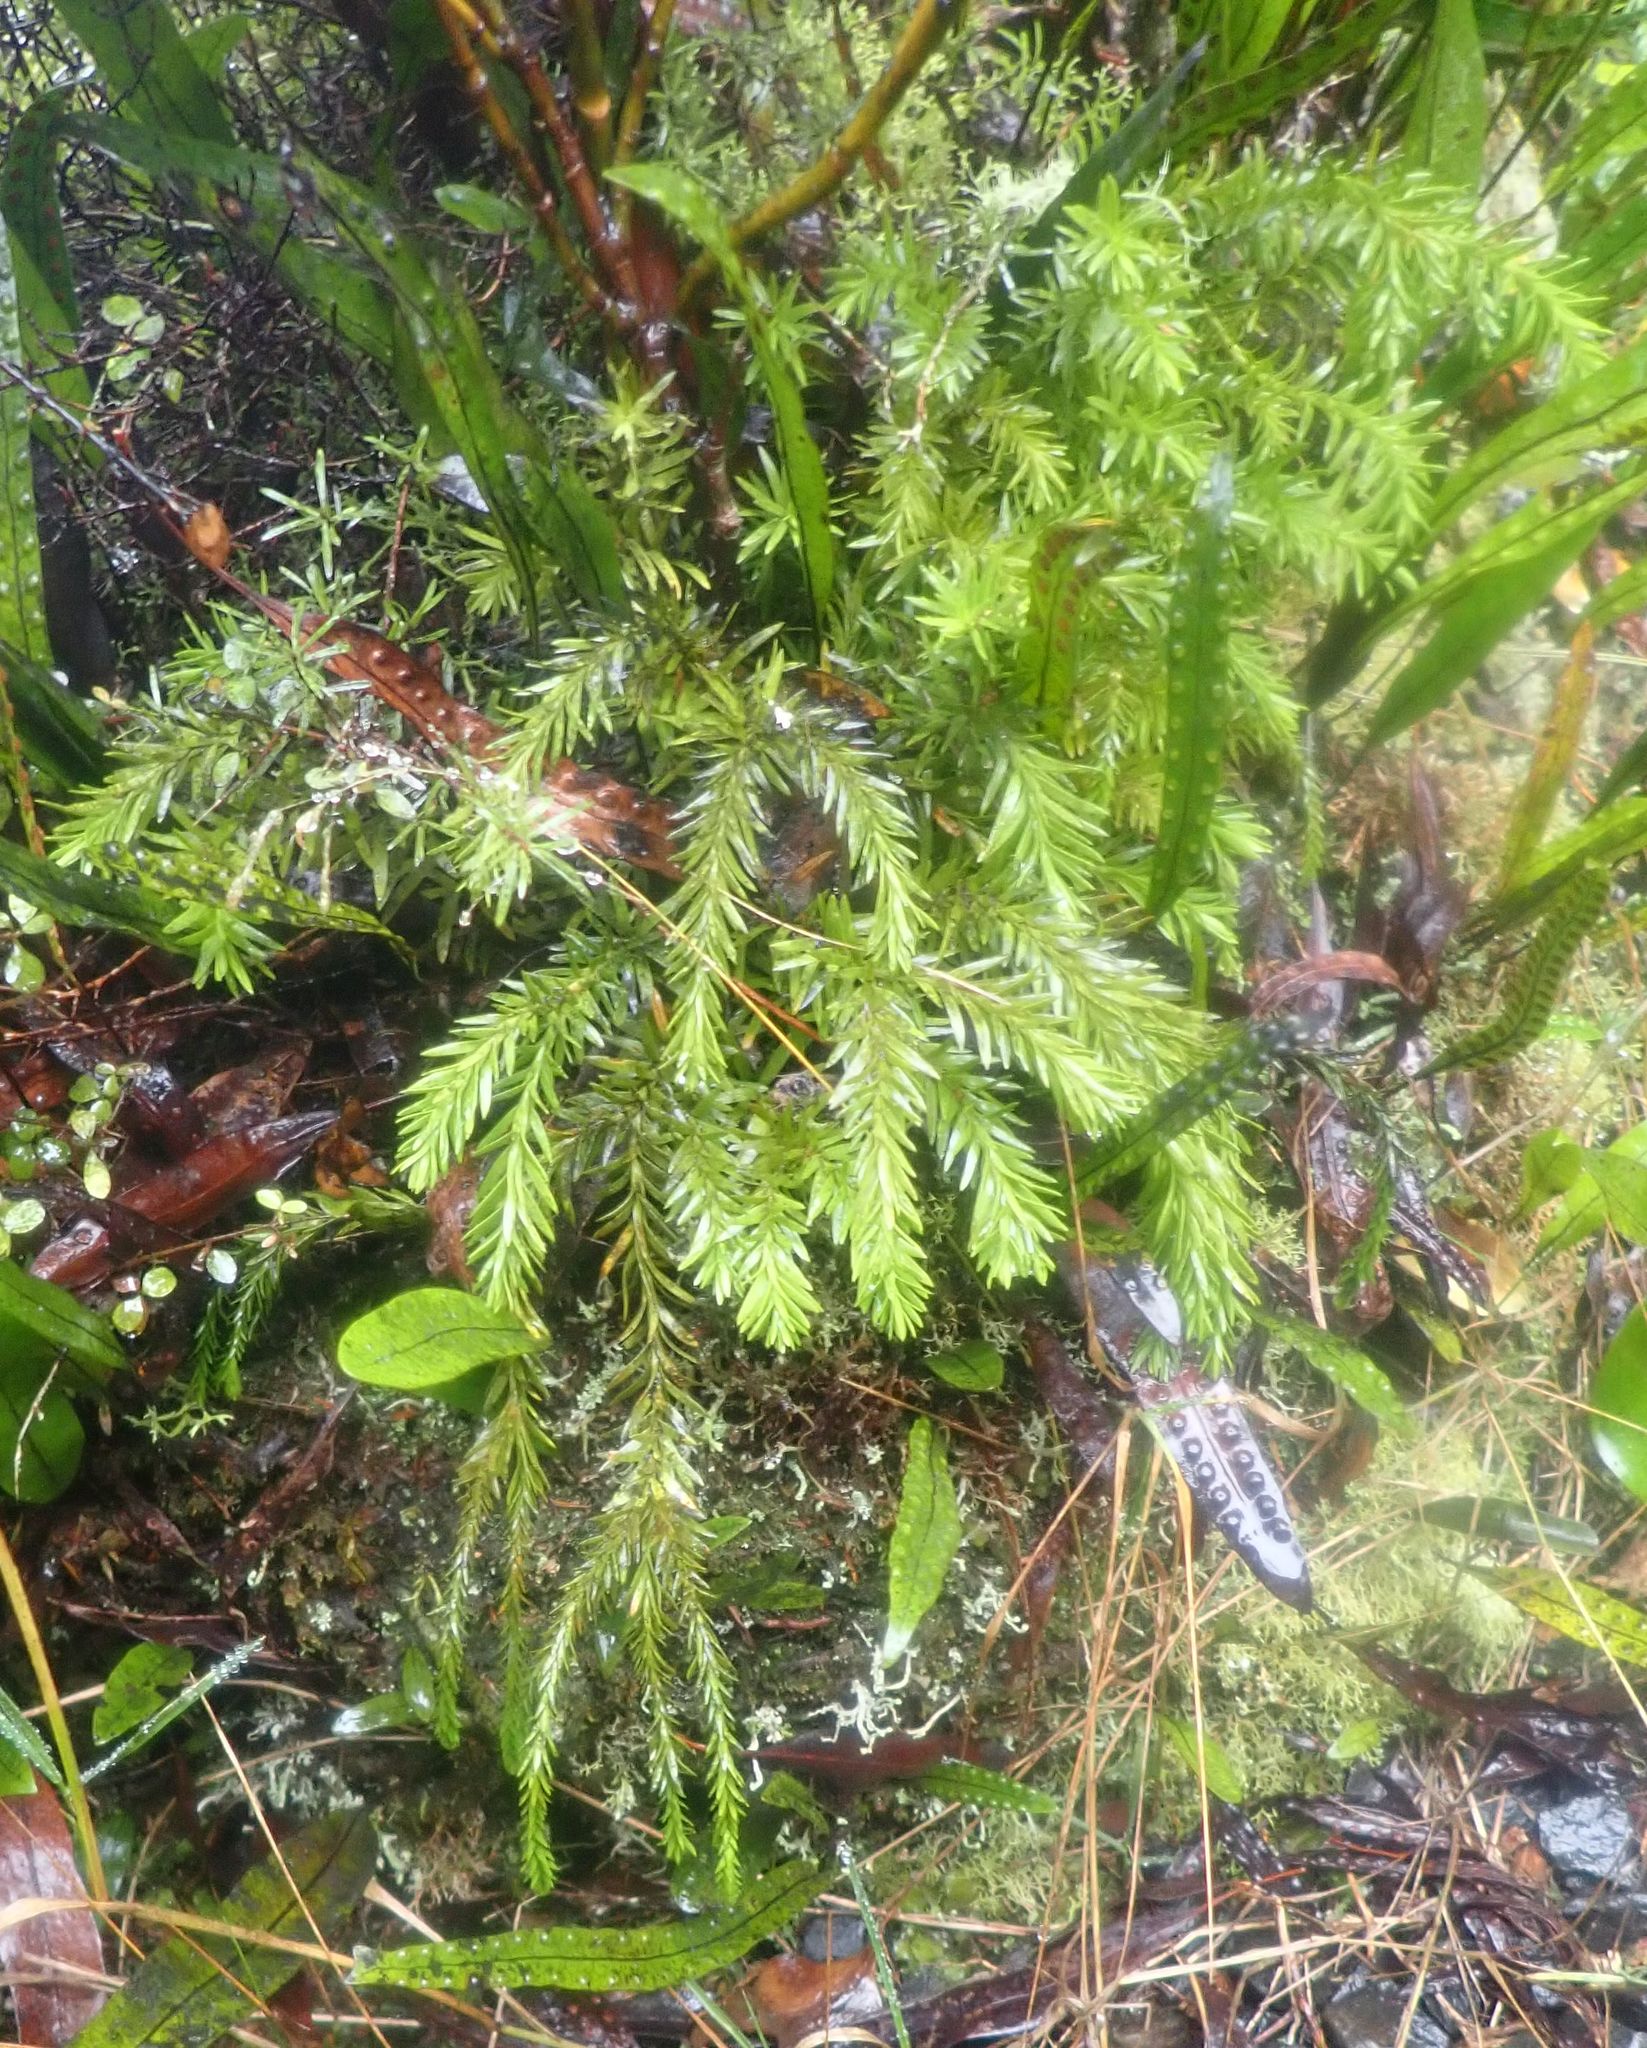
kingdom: Plantae
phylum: Tracheophyta
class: Lycopodiopsida
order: Lycopodiales
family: Lycopodiaceae
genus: Phlegmariurus
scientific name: Phlegmariurus varius
